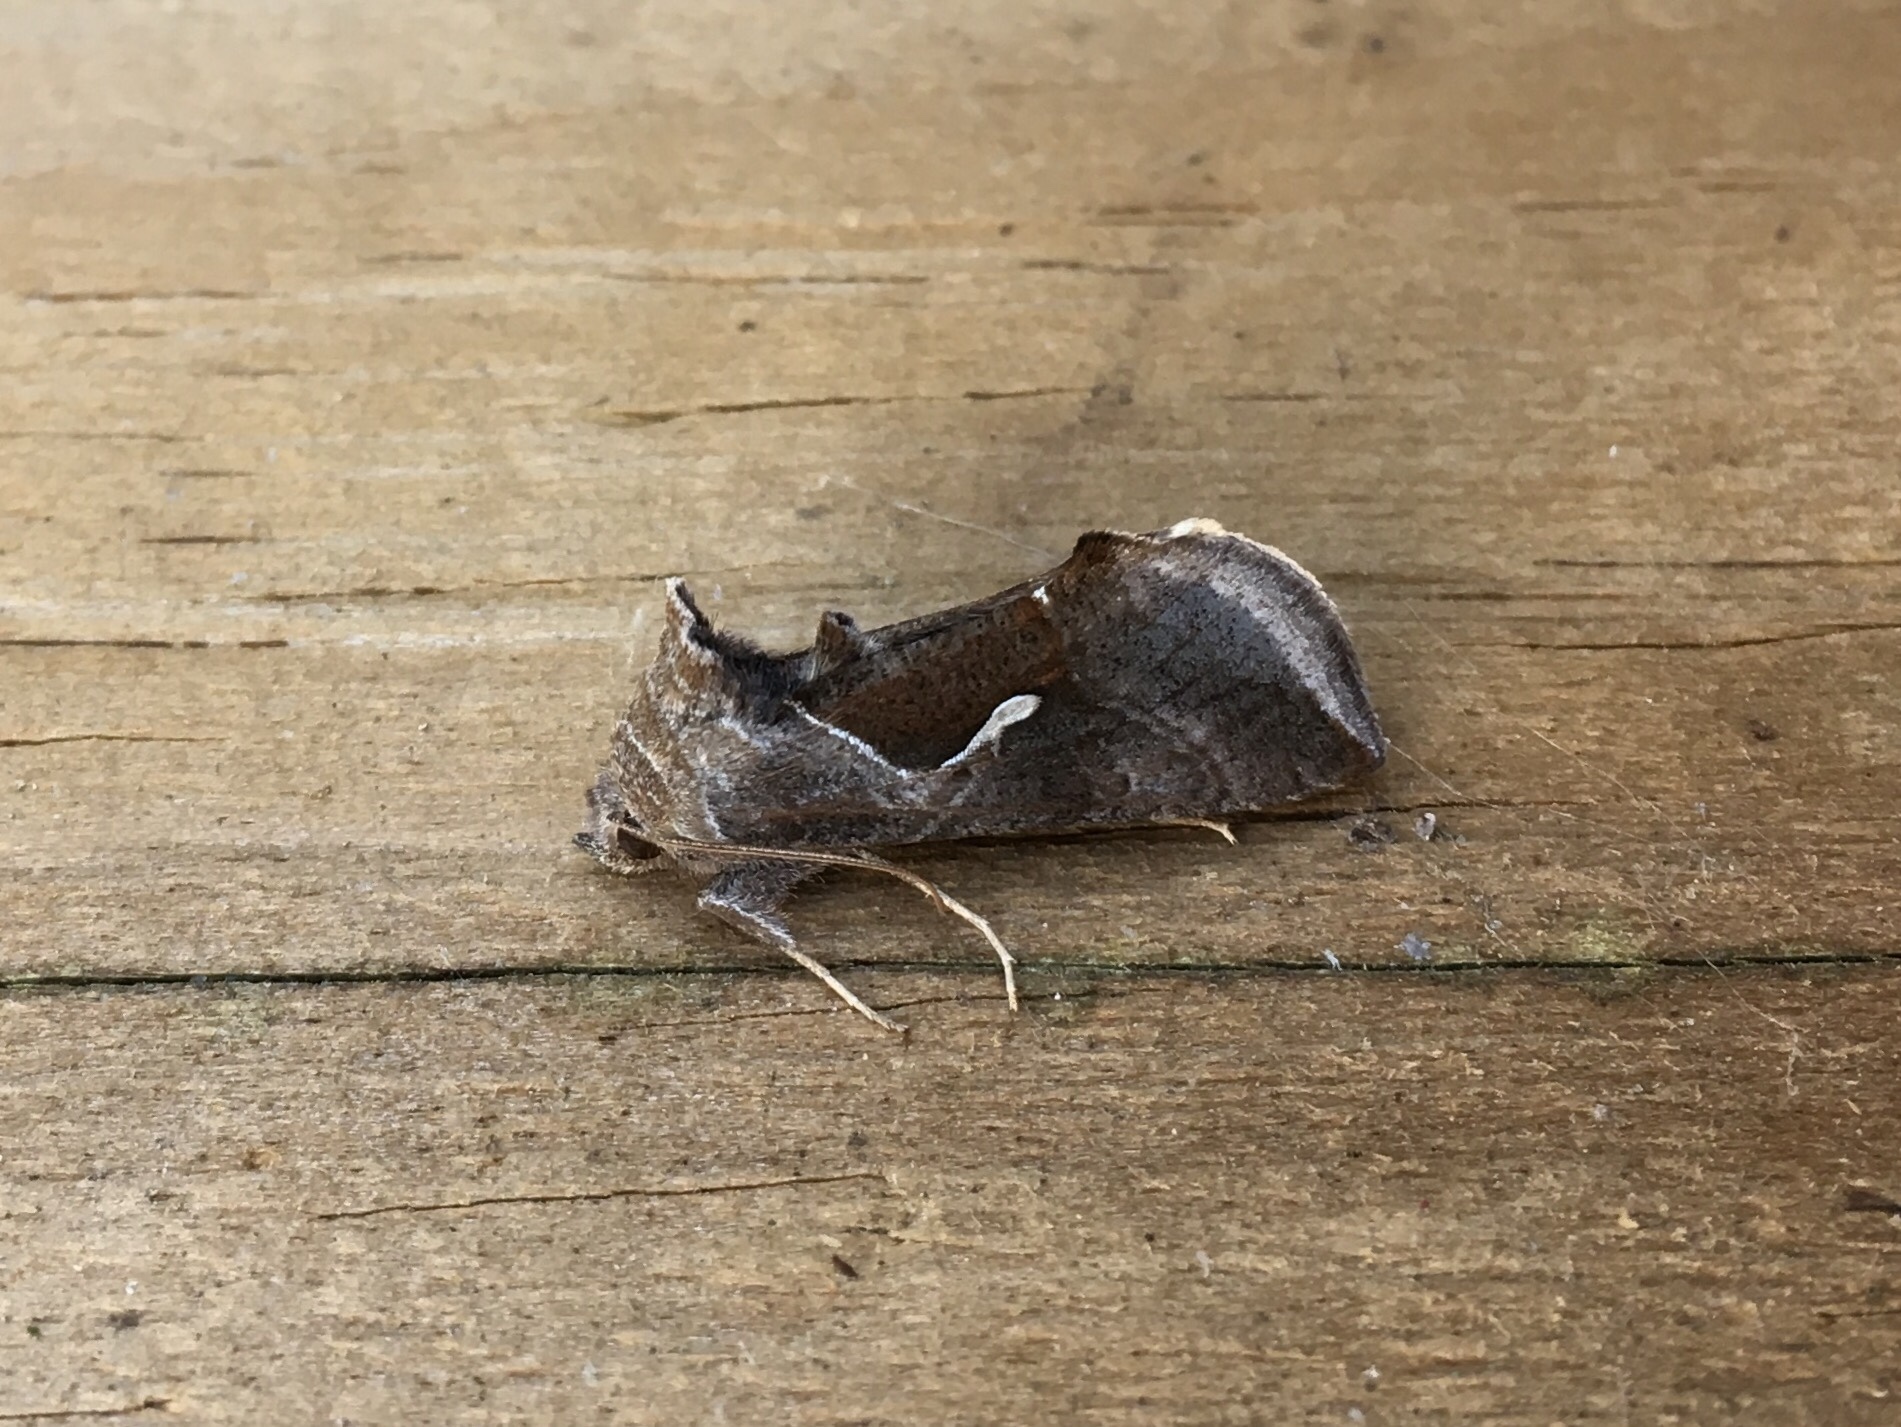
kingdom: Animalia
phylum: Arthropoda
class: Insecta
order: Lepidoptera
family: Noctuidae
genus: Anagrapha
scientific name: Anagrapha falcifera
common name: Celery looper
